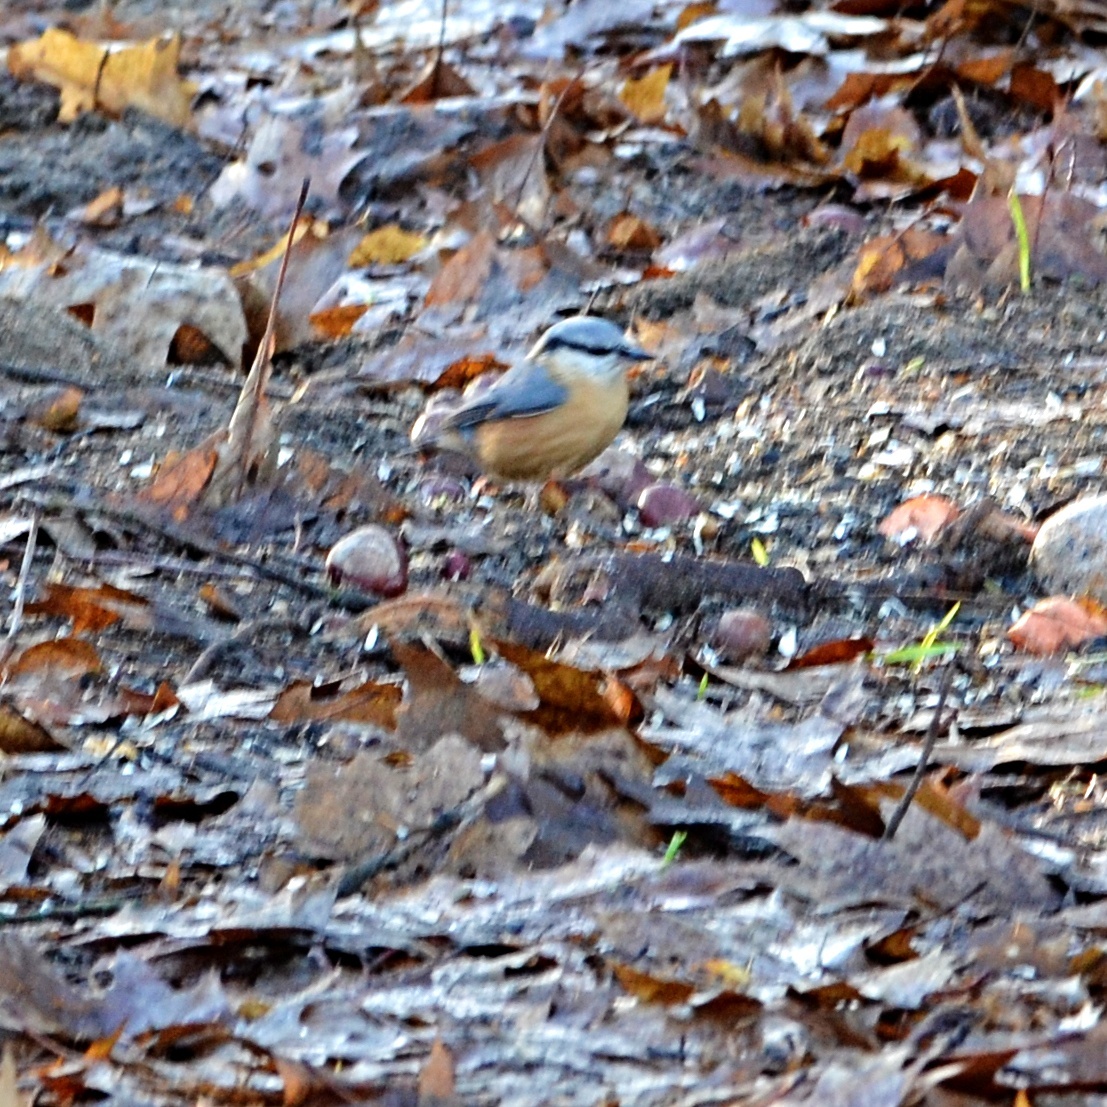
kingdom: Animalia
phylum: Chordata
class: Aves
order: Passeriformes
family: Sittidae
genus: Sitta
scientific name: Sitta europaea
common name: Eurasian nuthatch
